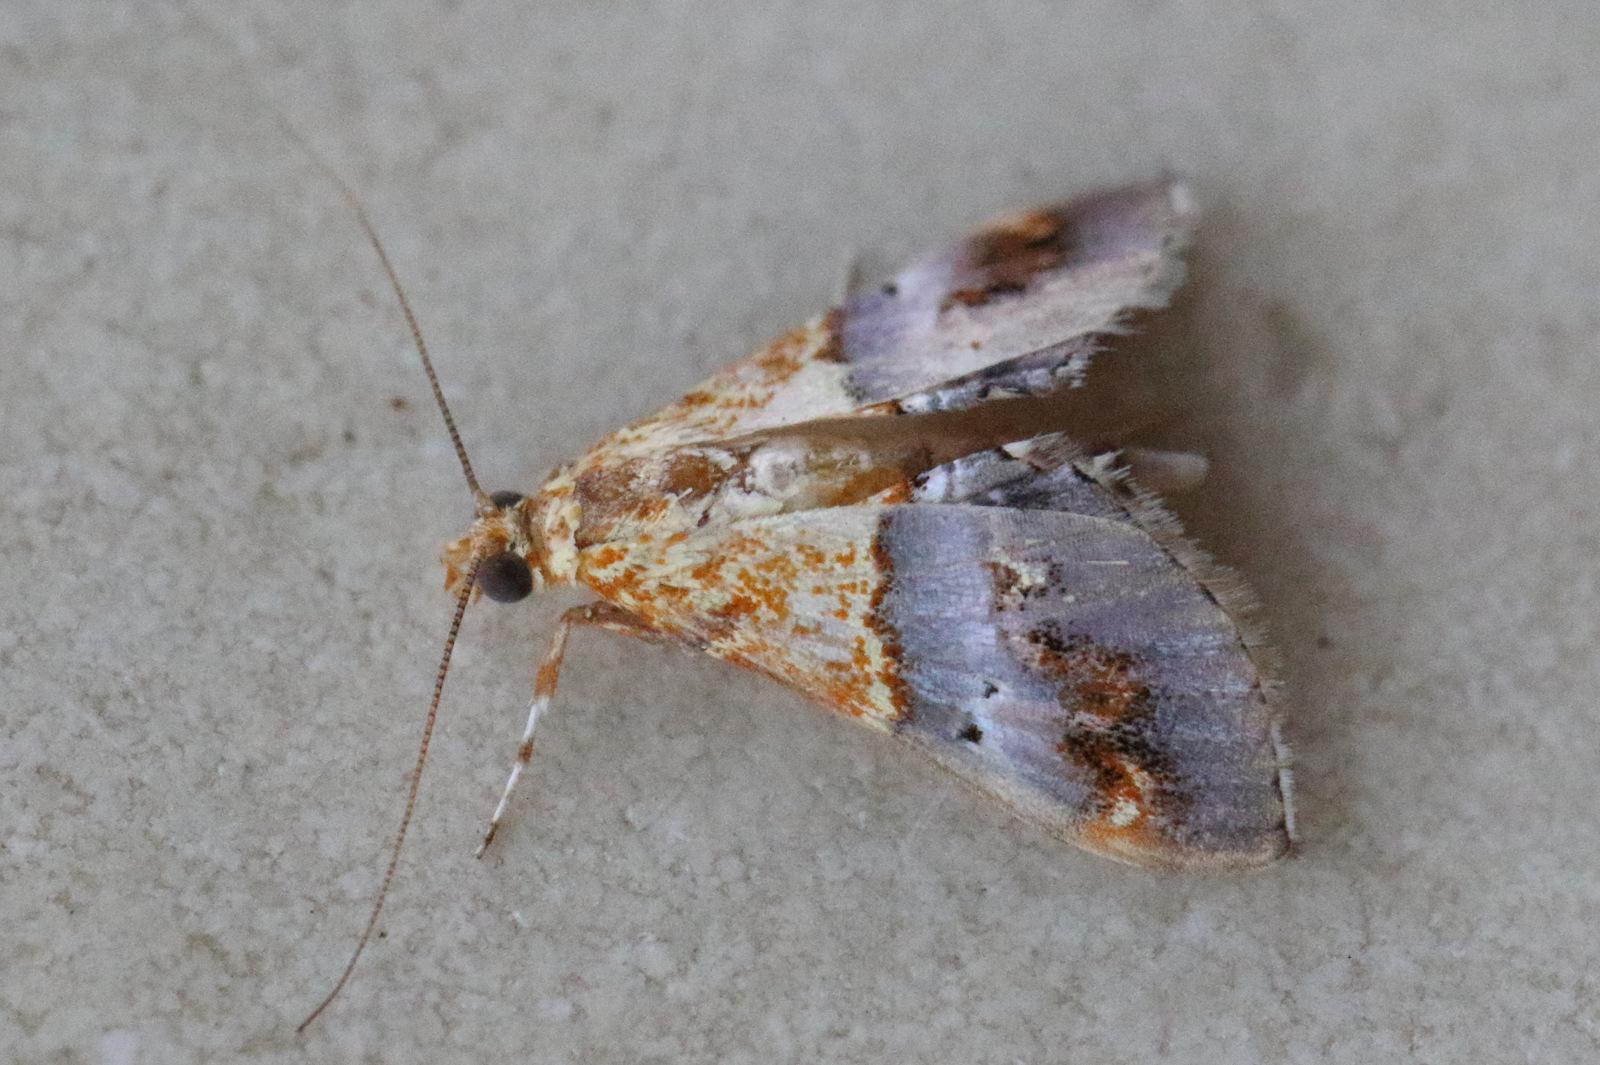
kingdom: Animalia
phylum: Arthropoda
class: Insecta
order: Lepidoptera
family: Crambidae
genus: Agrotera
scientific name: Agrotera Tetracona amathealis
